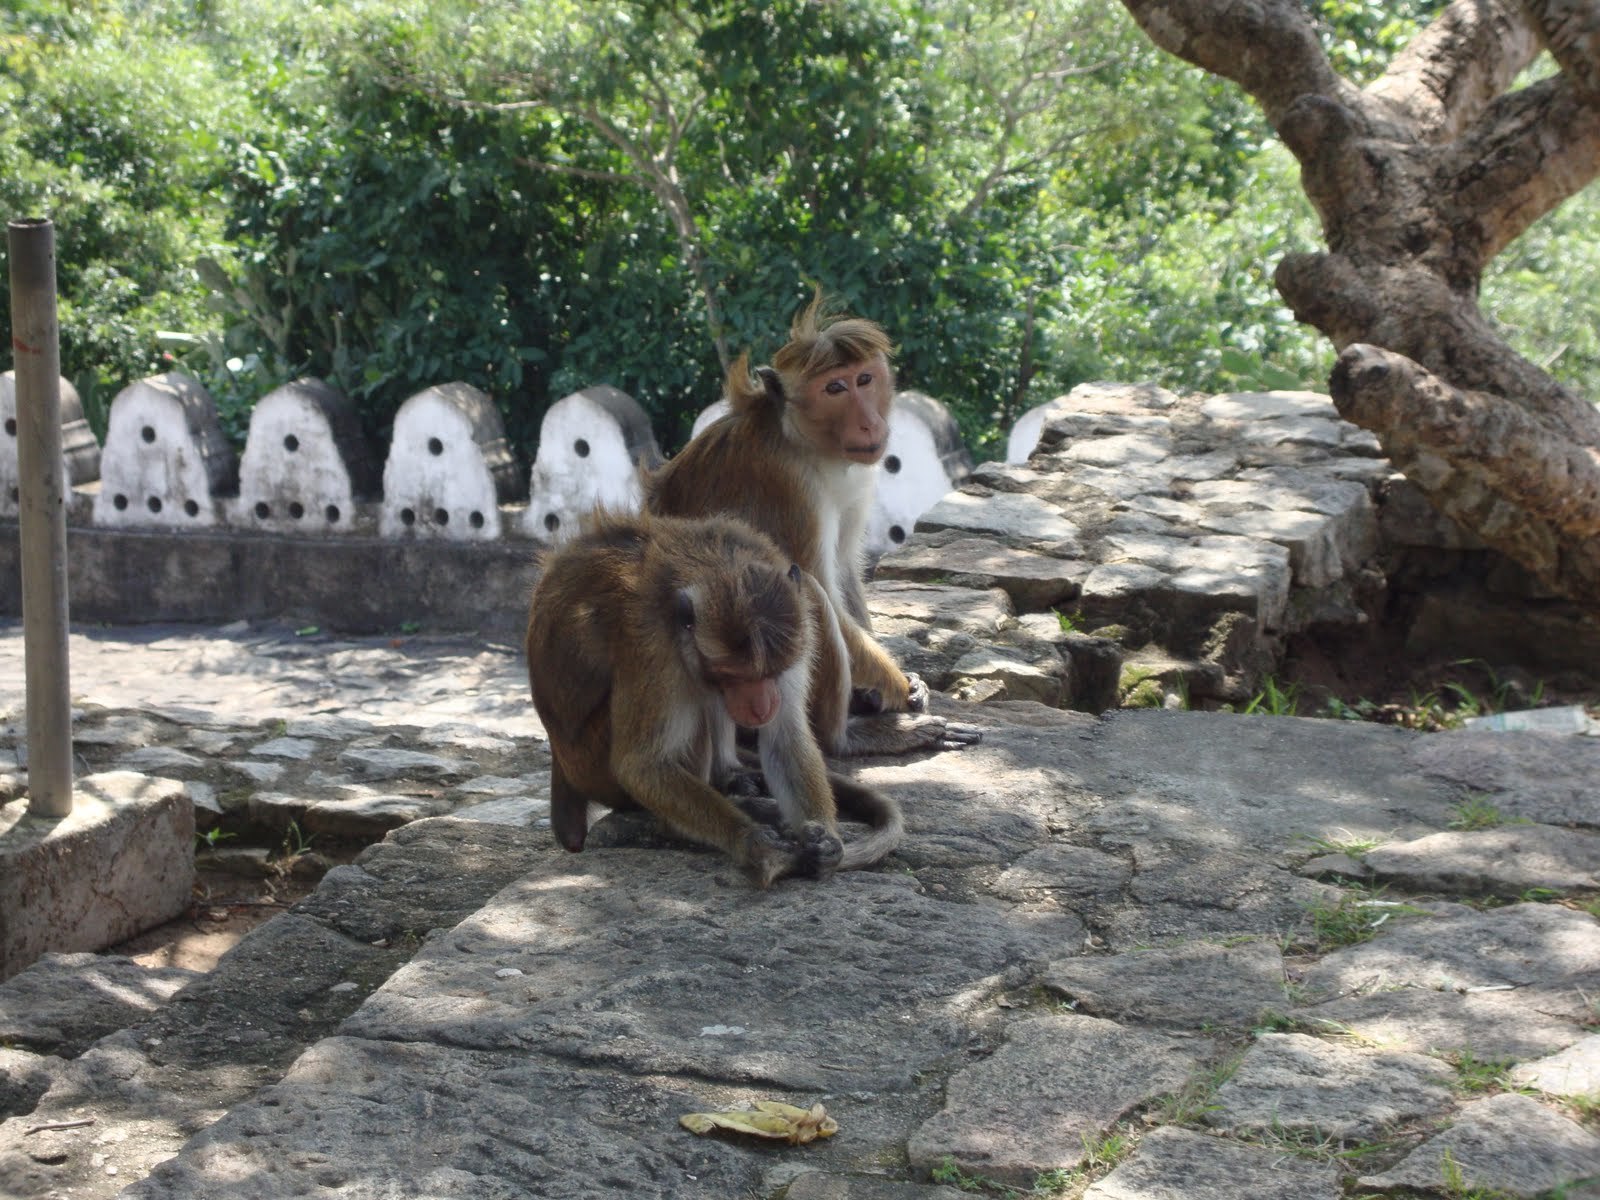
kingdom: Animalia
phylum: Chordata
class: Mammalia
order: Primates
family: Cercopithecidae
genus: Macaca
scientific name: Macaca sinica
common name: Toque macaque
